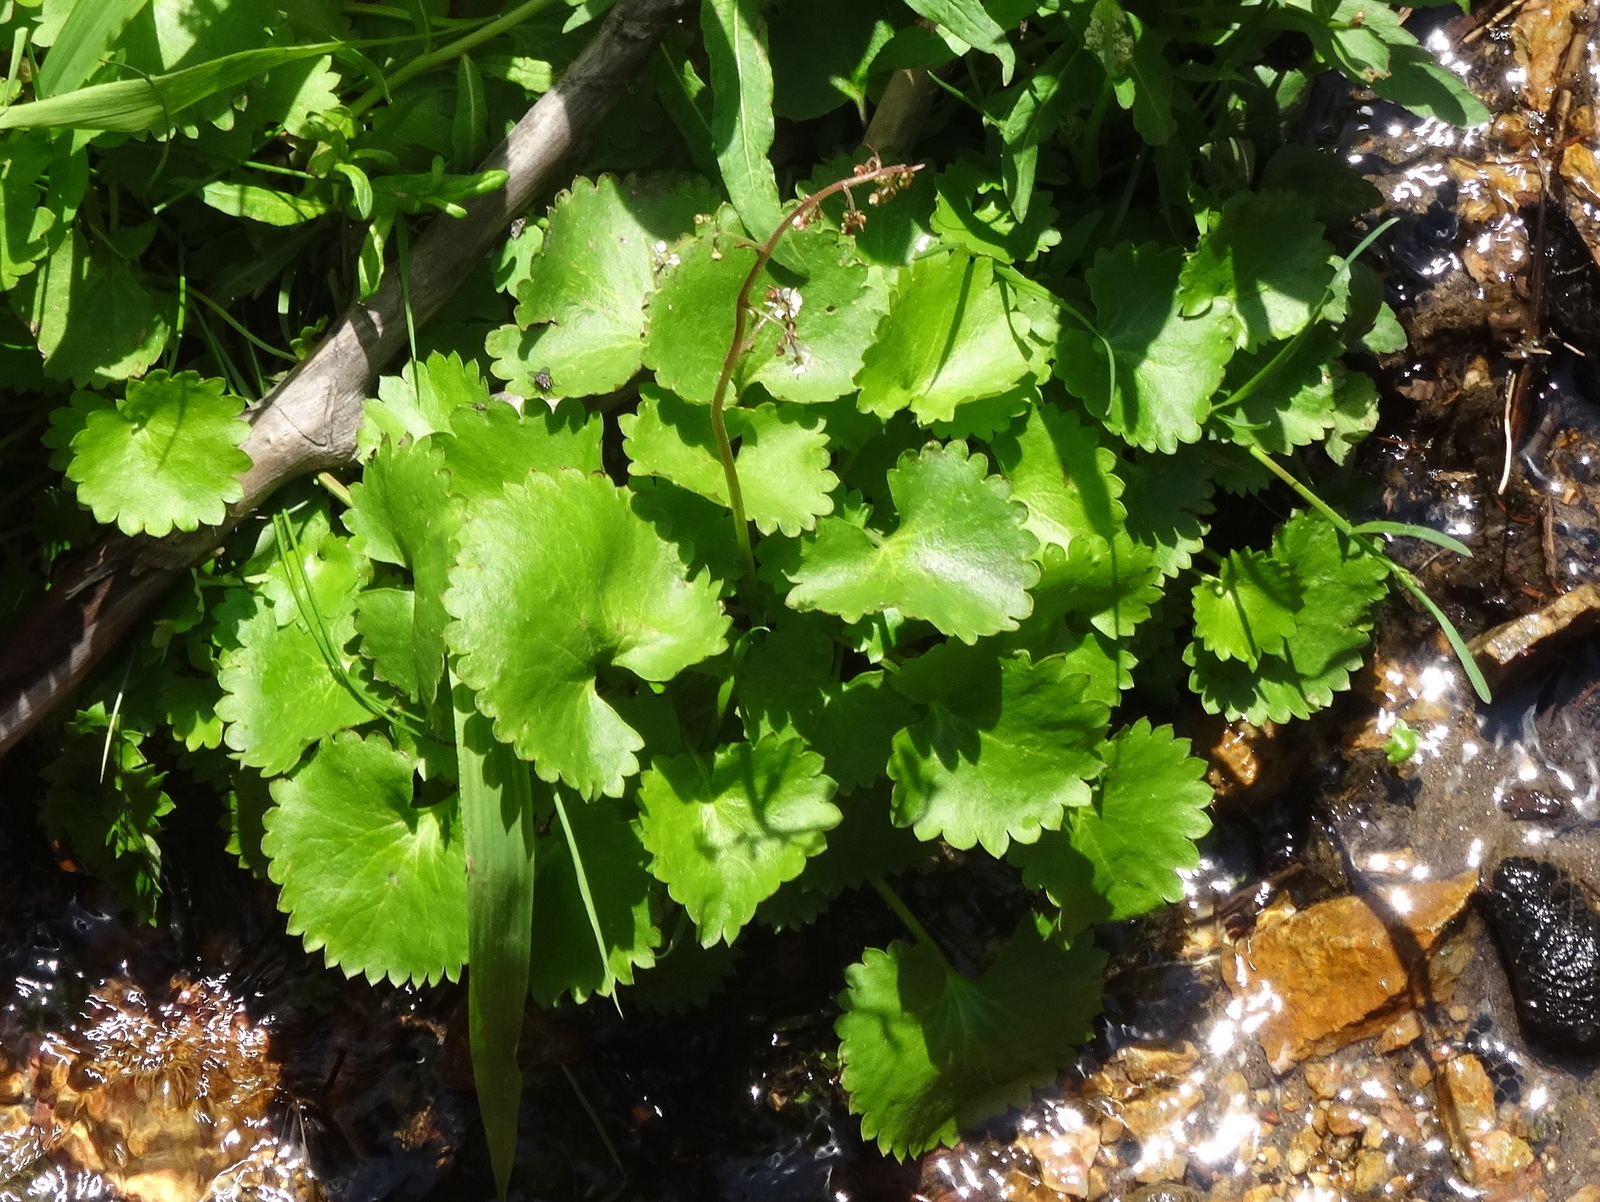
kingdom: Plantae
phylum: Tracheophyta
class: Magnoliopsida
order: Saxifragales
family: Saxifragaceae
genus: Micranthes
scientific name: Micranthes odontoloma
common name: Brook saxifrage
